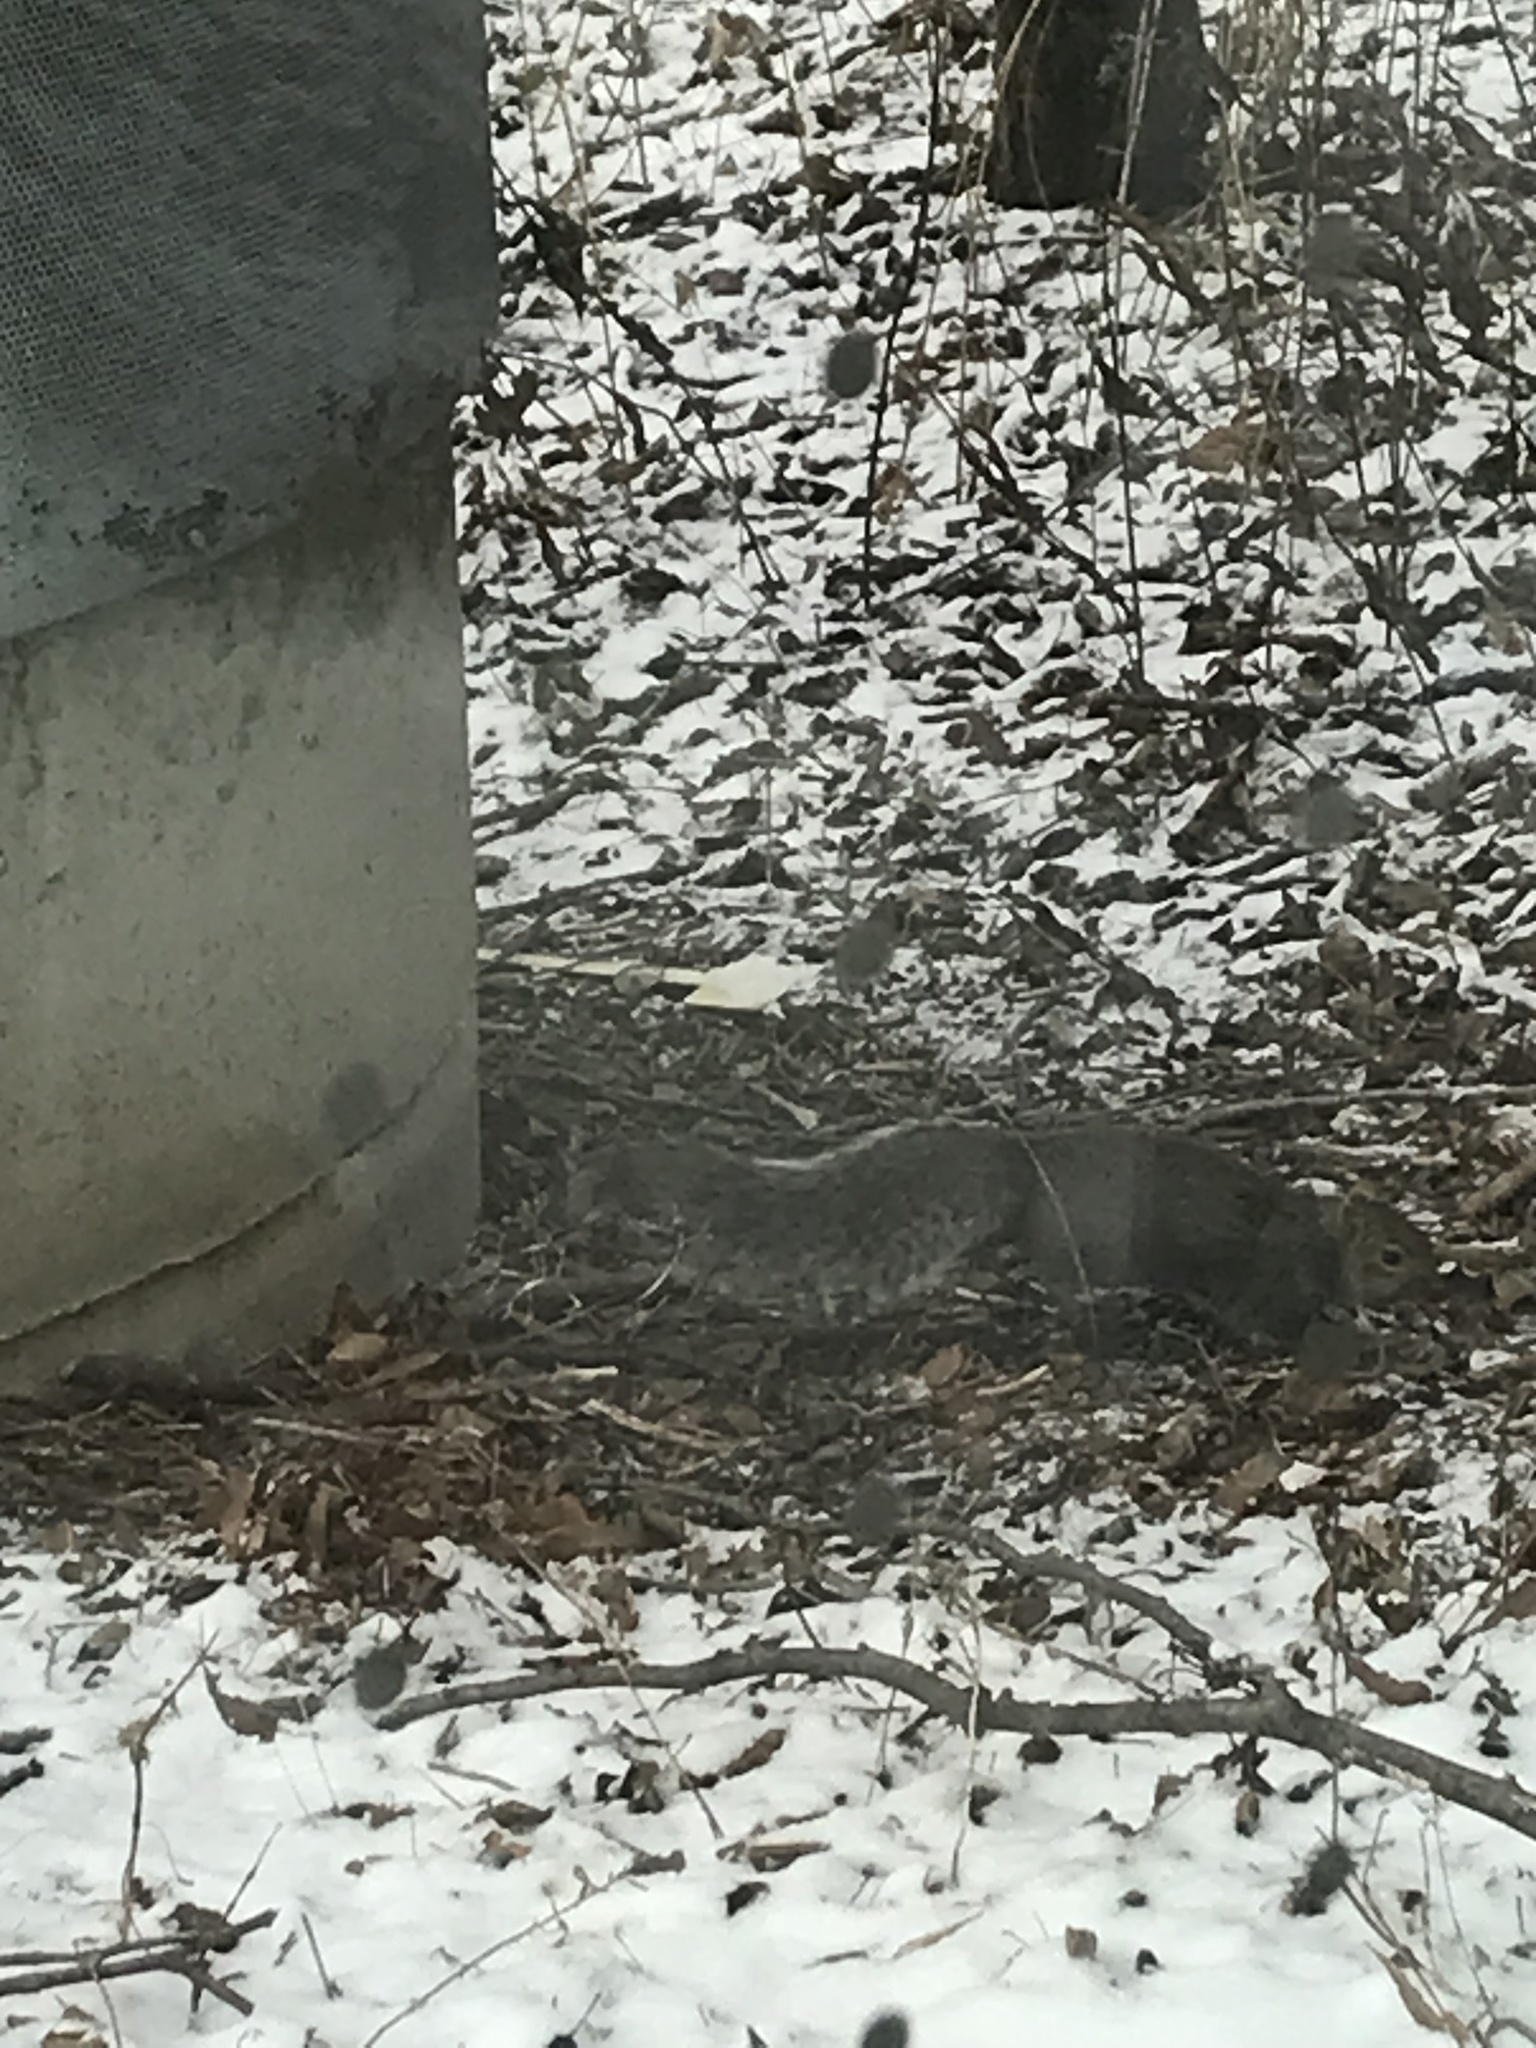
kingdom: Animalia
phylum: Chordata
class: Mammalia
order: Rodentia
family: Sciuridae
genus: Sciurus
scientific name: Sciurus carolinensis
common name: Eastern gray squirrel
